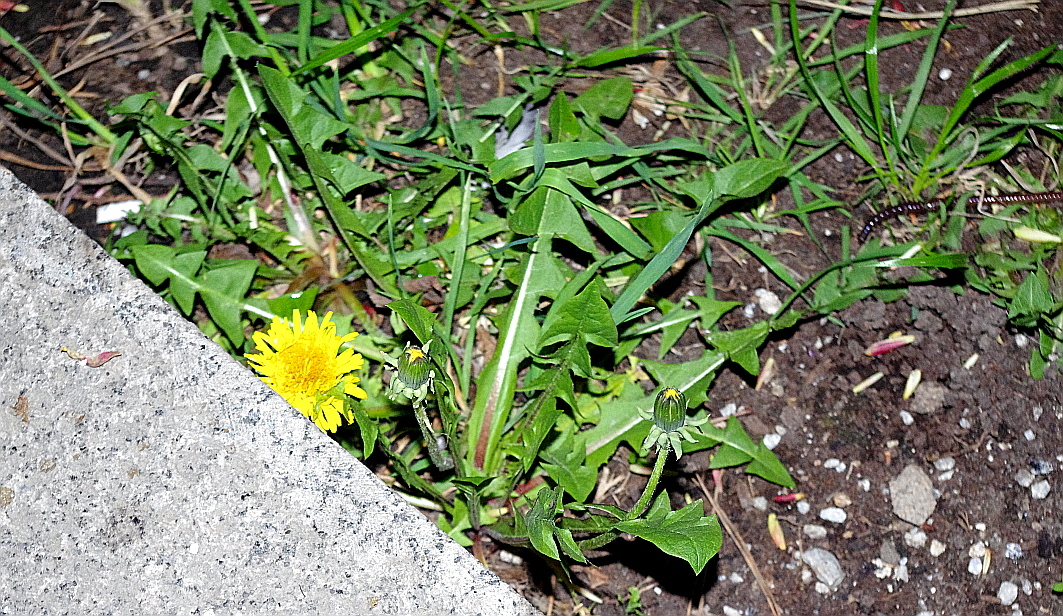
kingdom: Plantae
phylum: Tracheophyta
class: Magnoliopsida
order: Asterales
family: Asteraceae
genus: Taraxacum
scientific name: Taraxacum officinale
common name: Common dandelion
